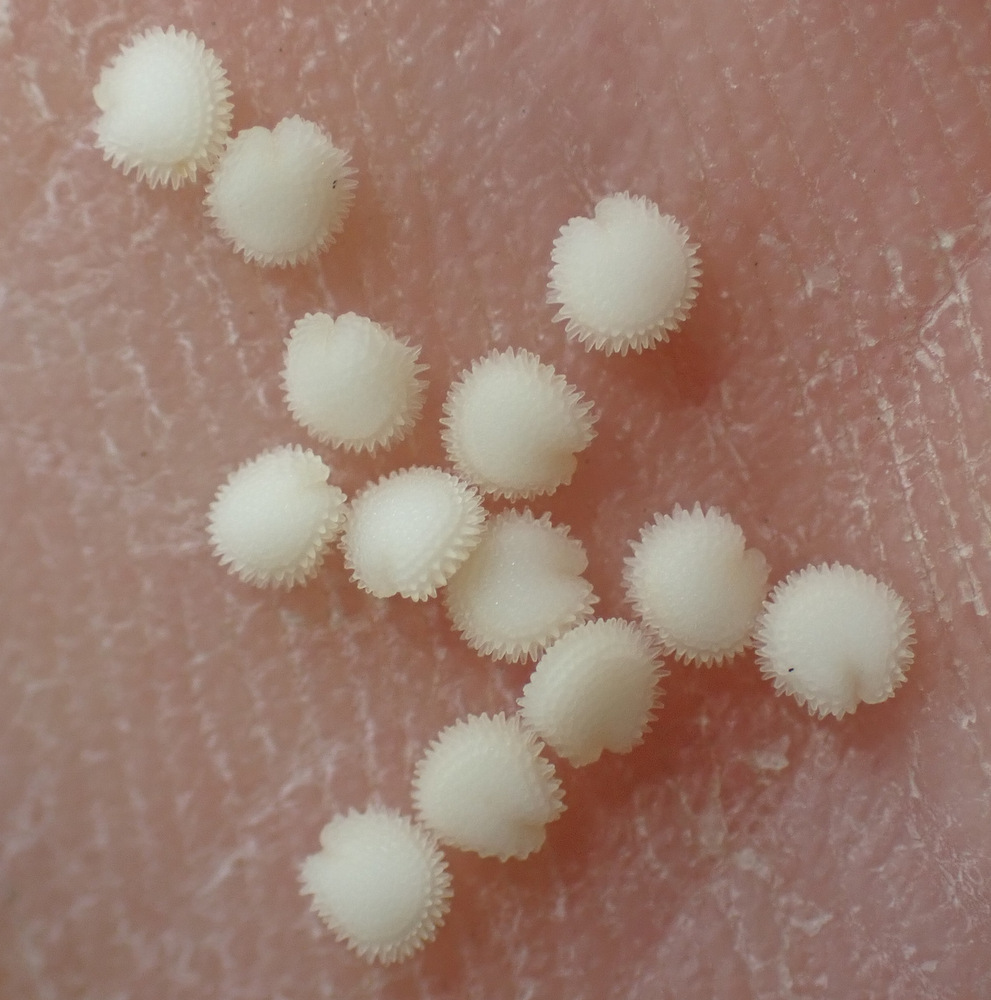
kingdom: Plantae
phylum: Tracheophyta
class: Magnoliopsida
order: Caryophyllales
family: Caryophyllaceae
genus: Stellaria
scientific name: Stellaria ruderalis
